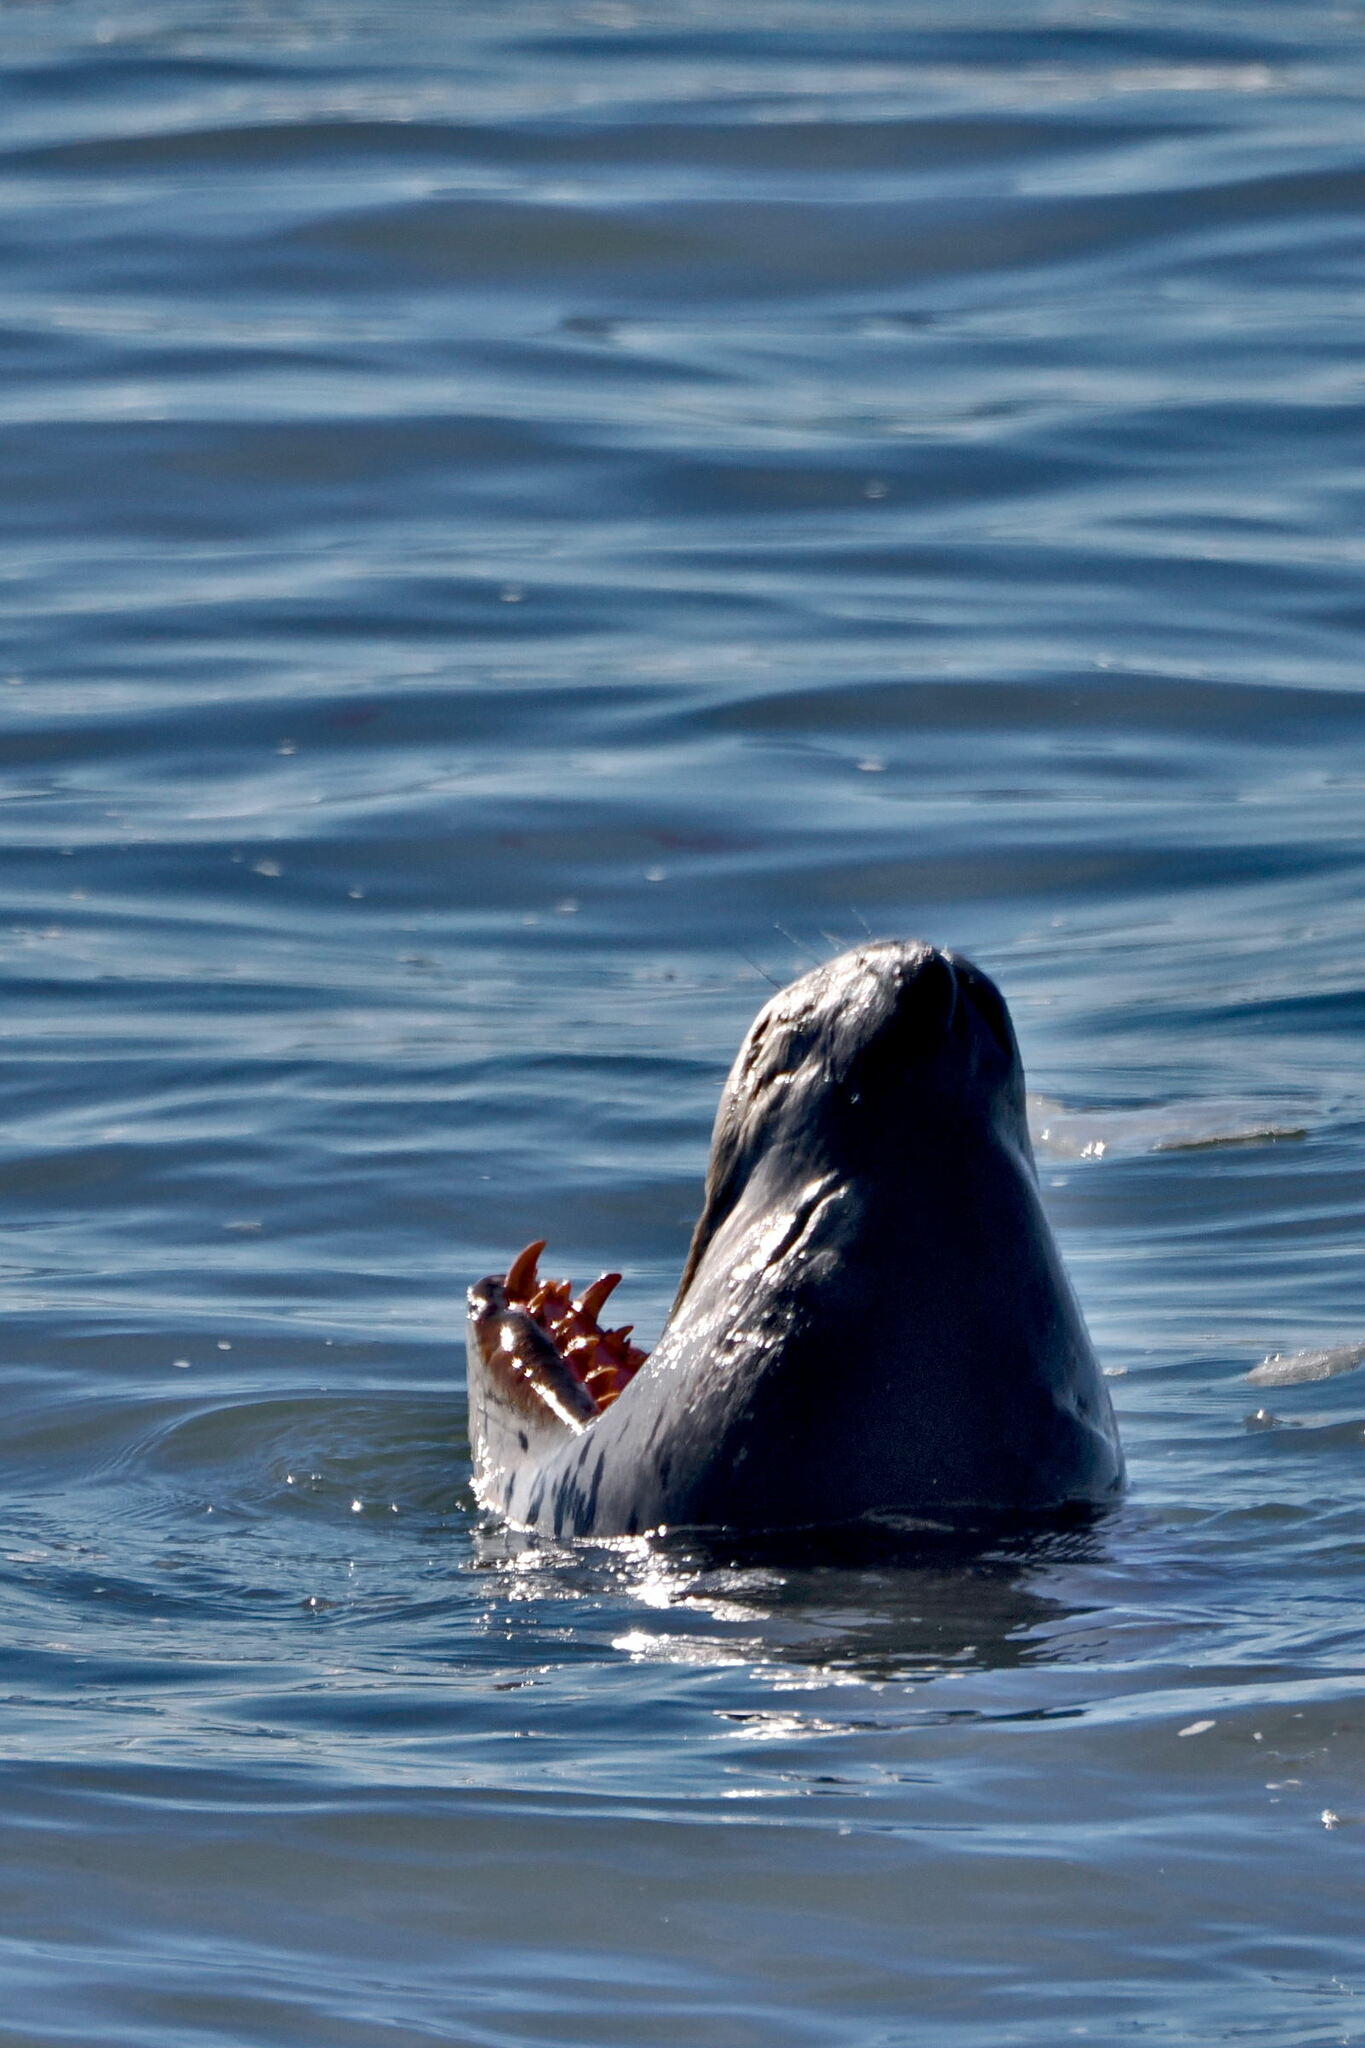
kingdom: Animalia
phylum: Chordata
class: Mammalia
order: Carnivora
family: Phocidae
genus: Hydrurga
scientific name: Hydrurga leptonyx
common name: Leopard seal
